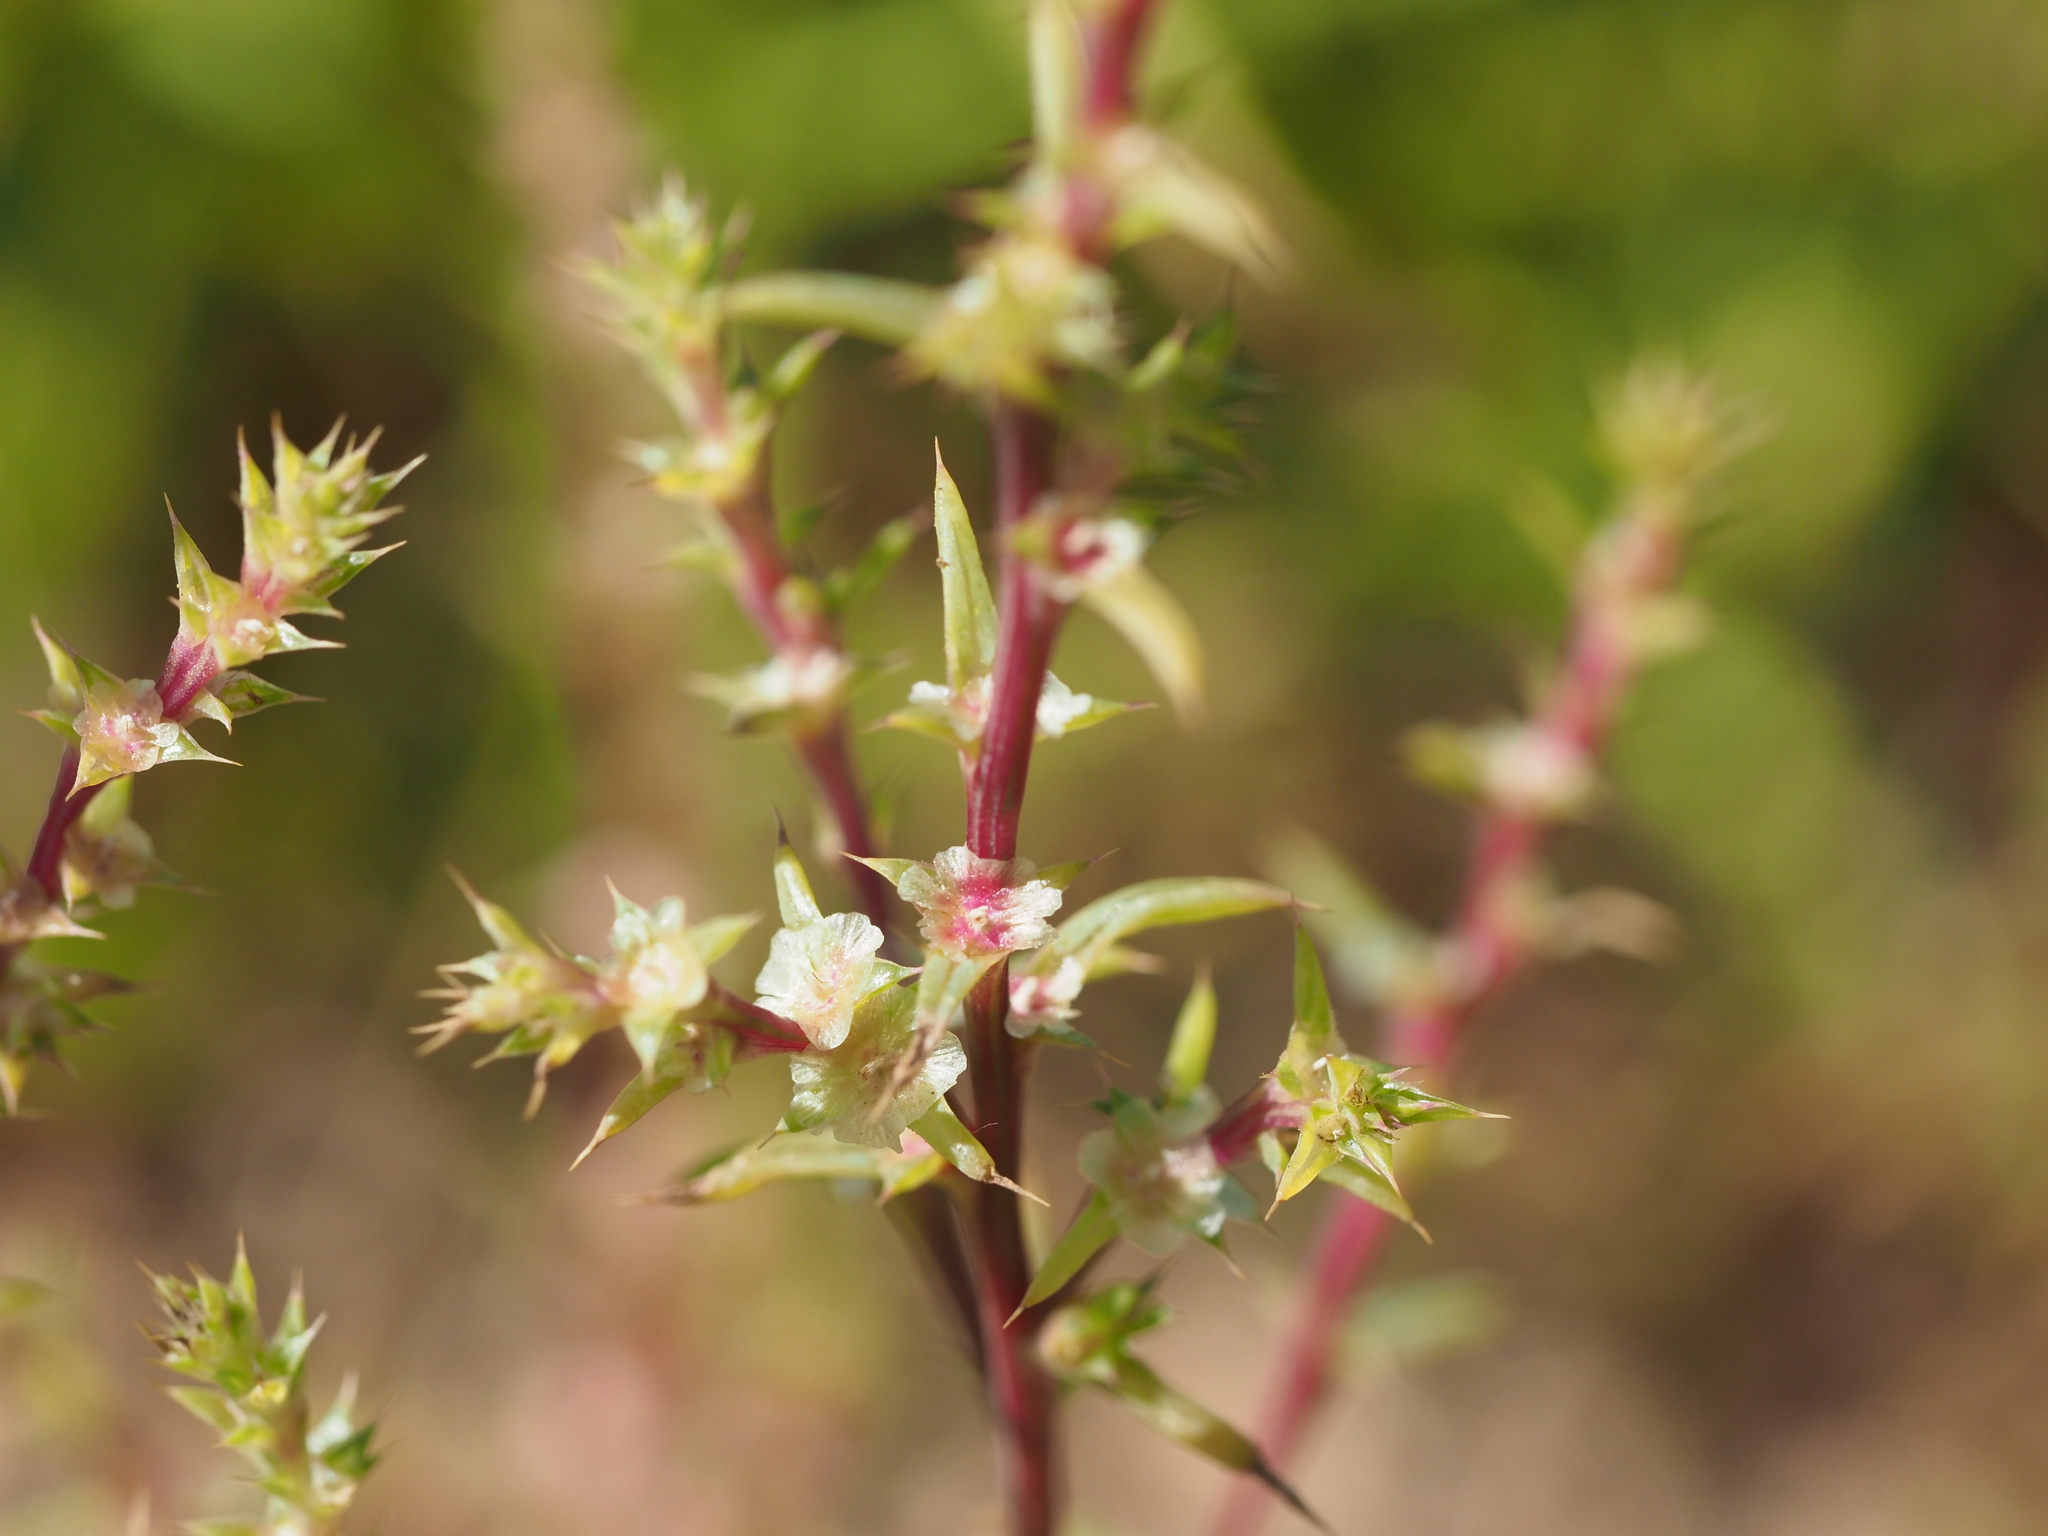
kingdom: Plantae
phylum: Tracheophyta
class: Magnoliopsida
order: Caryophyllales
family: Amaranthaceae
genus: Salsola
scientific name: Salsola tragus
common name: Prickly russian thistle
